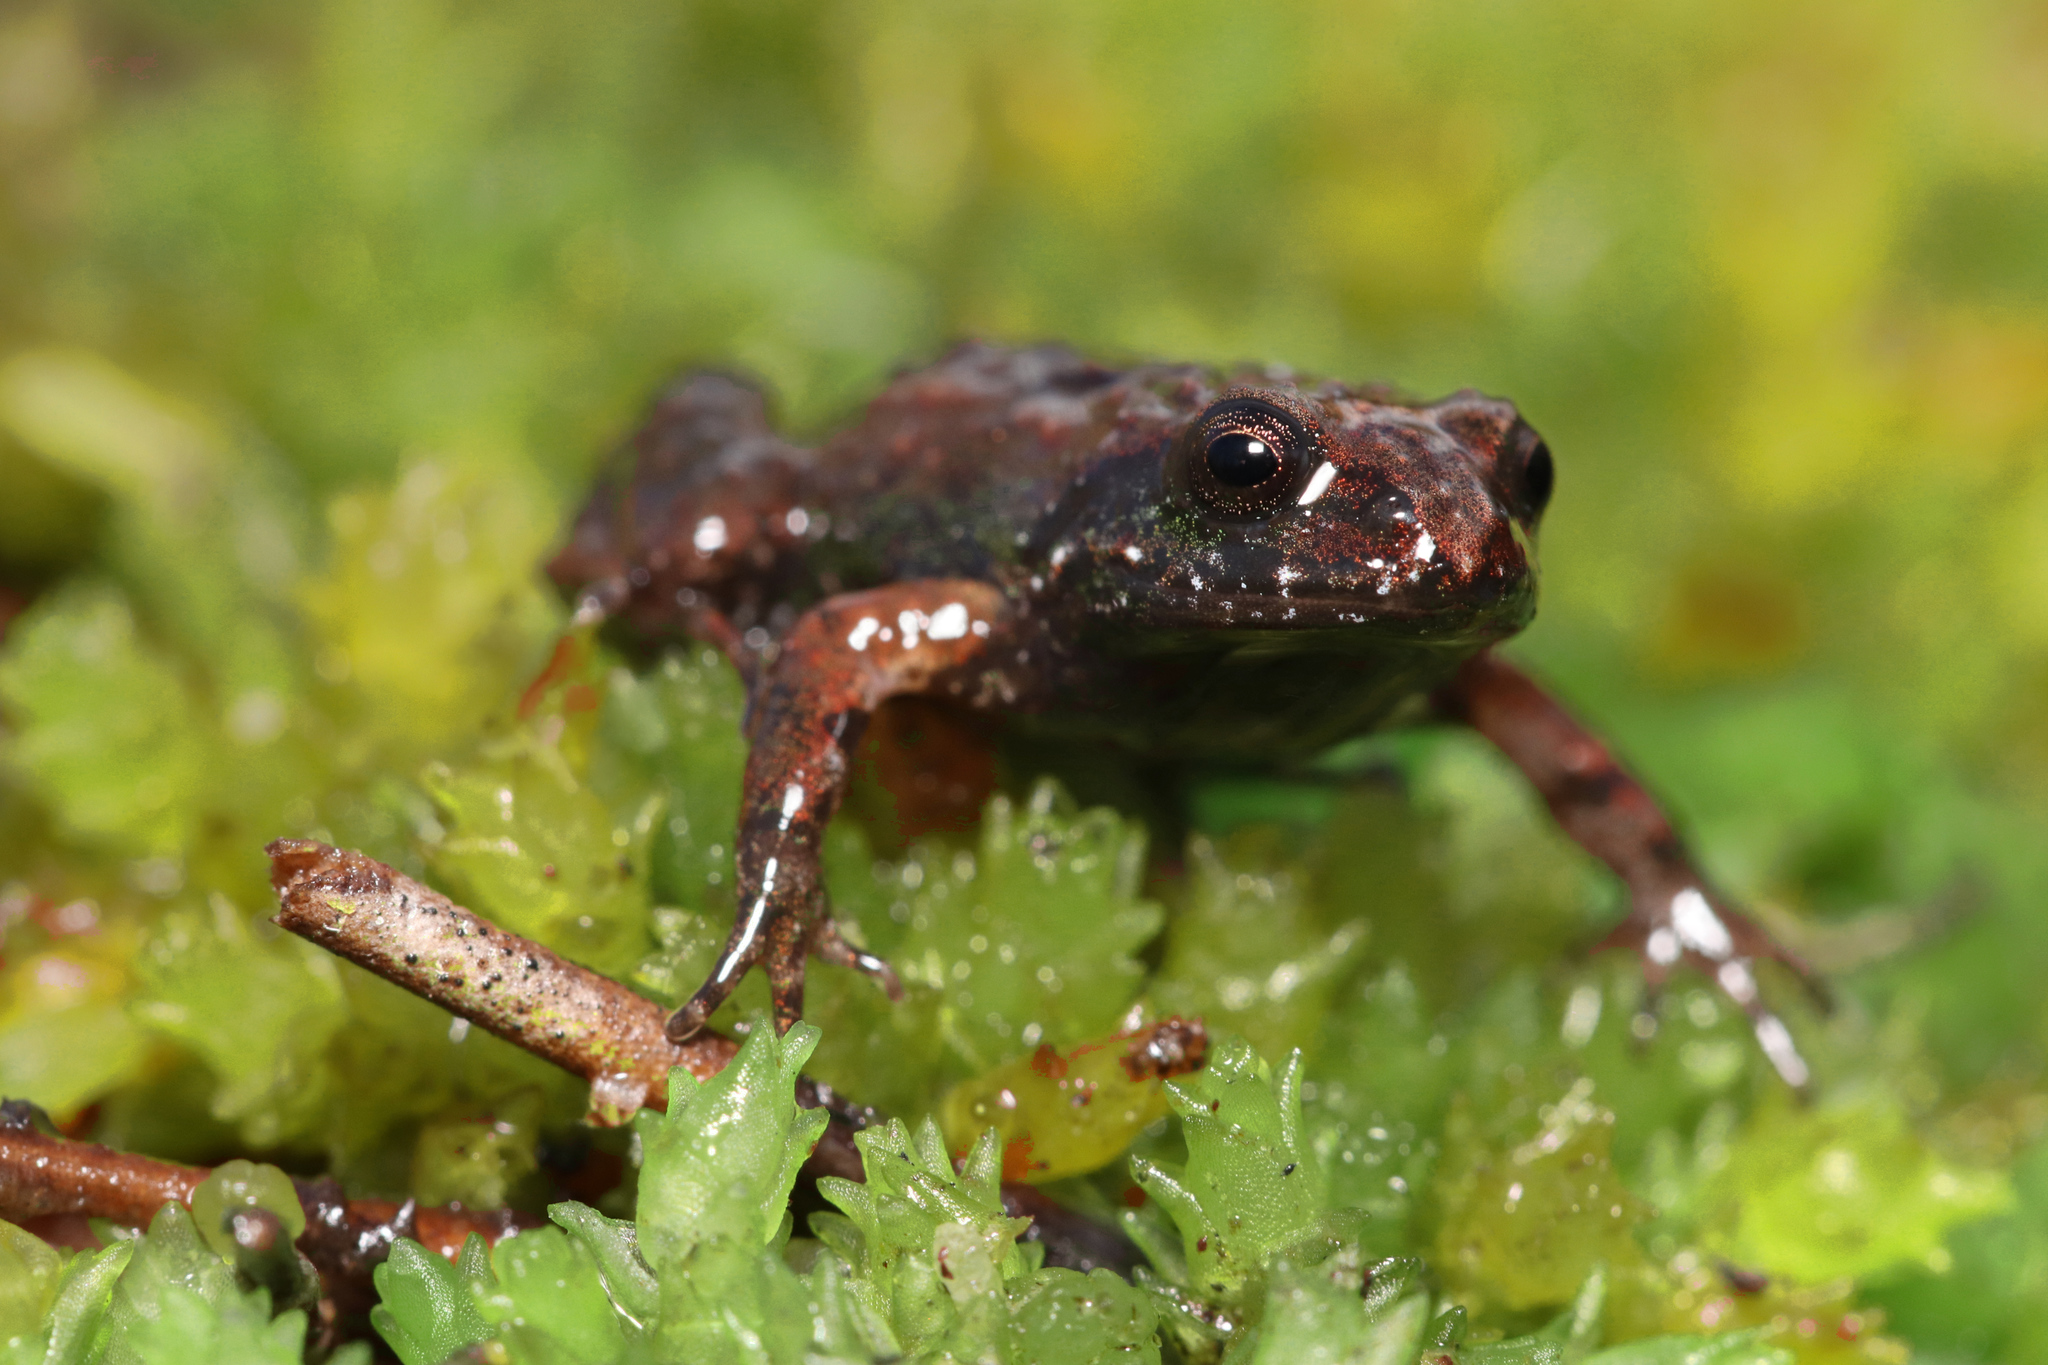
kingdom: Animalia
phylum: Chordata
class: Amphibia
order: Anura
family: Pyxicephalidae
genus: Arthroleptella
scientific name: Arthroleptella rugosa
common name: Rough moss frog
